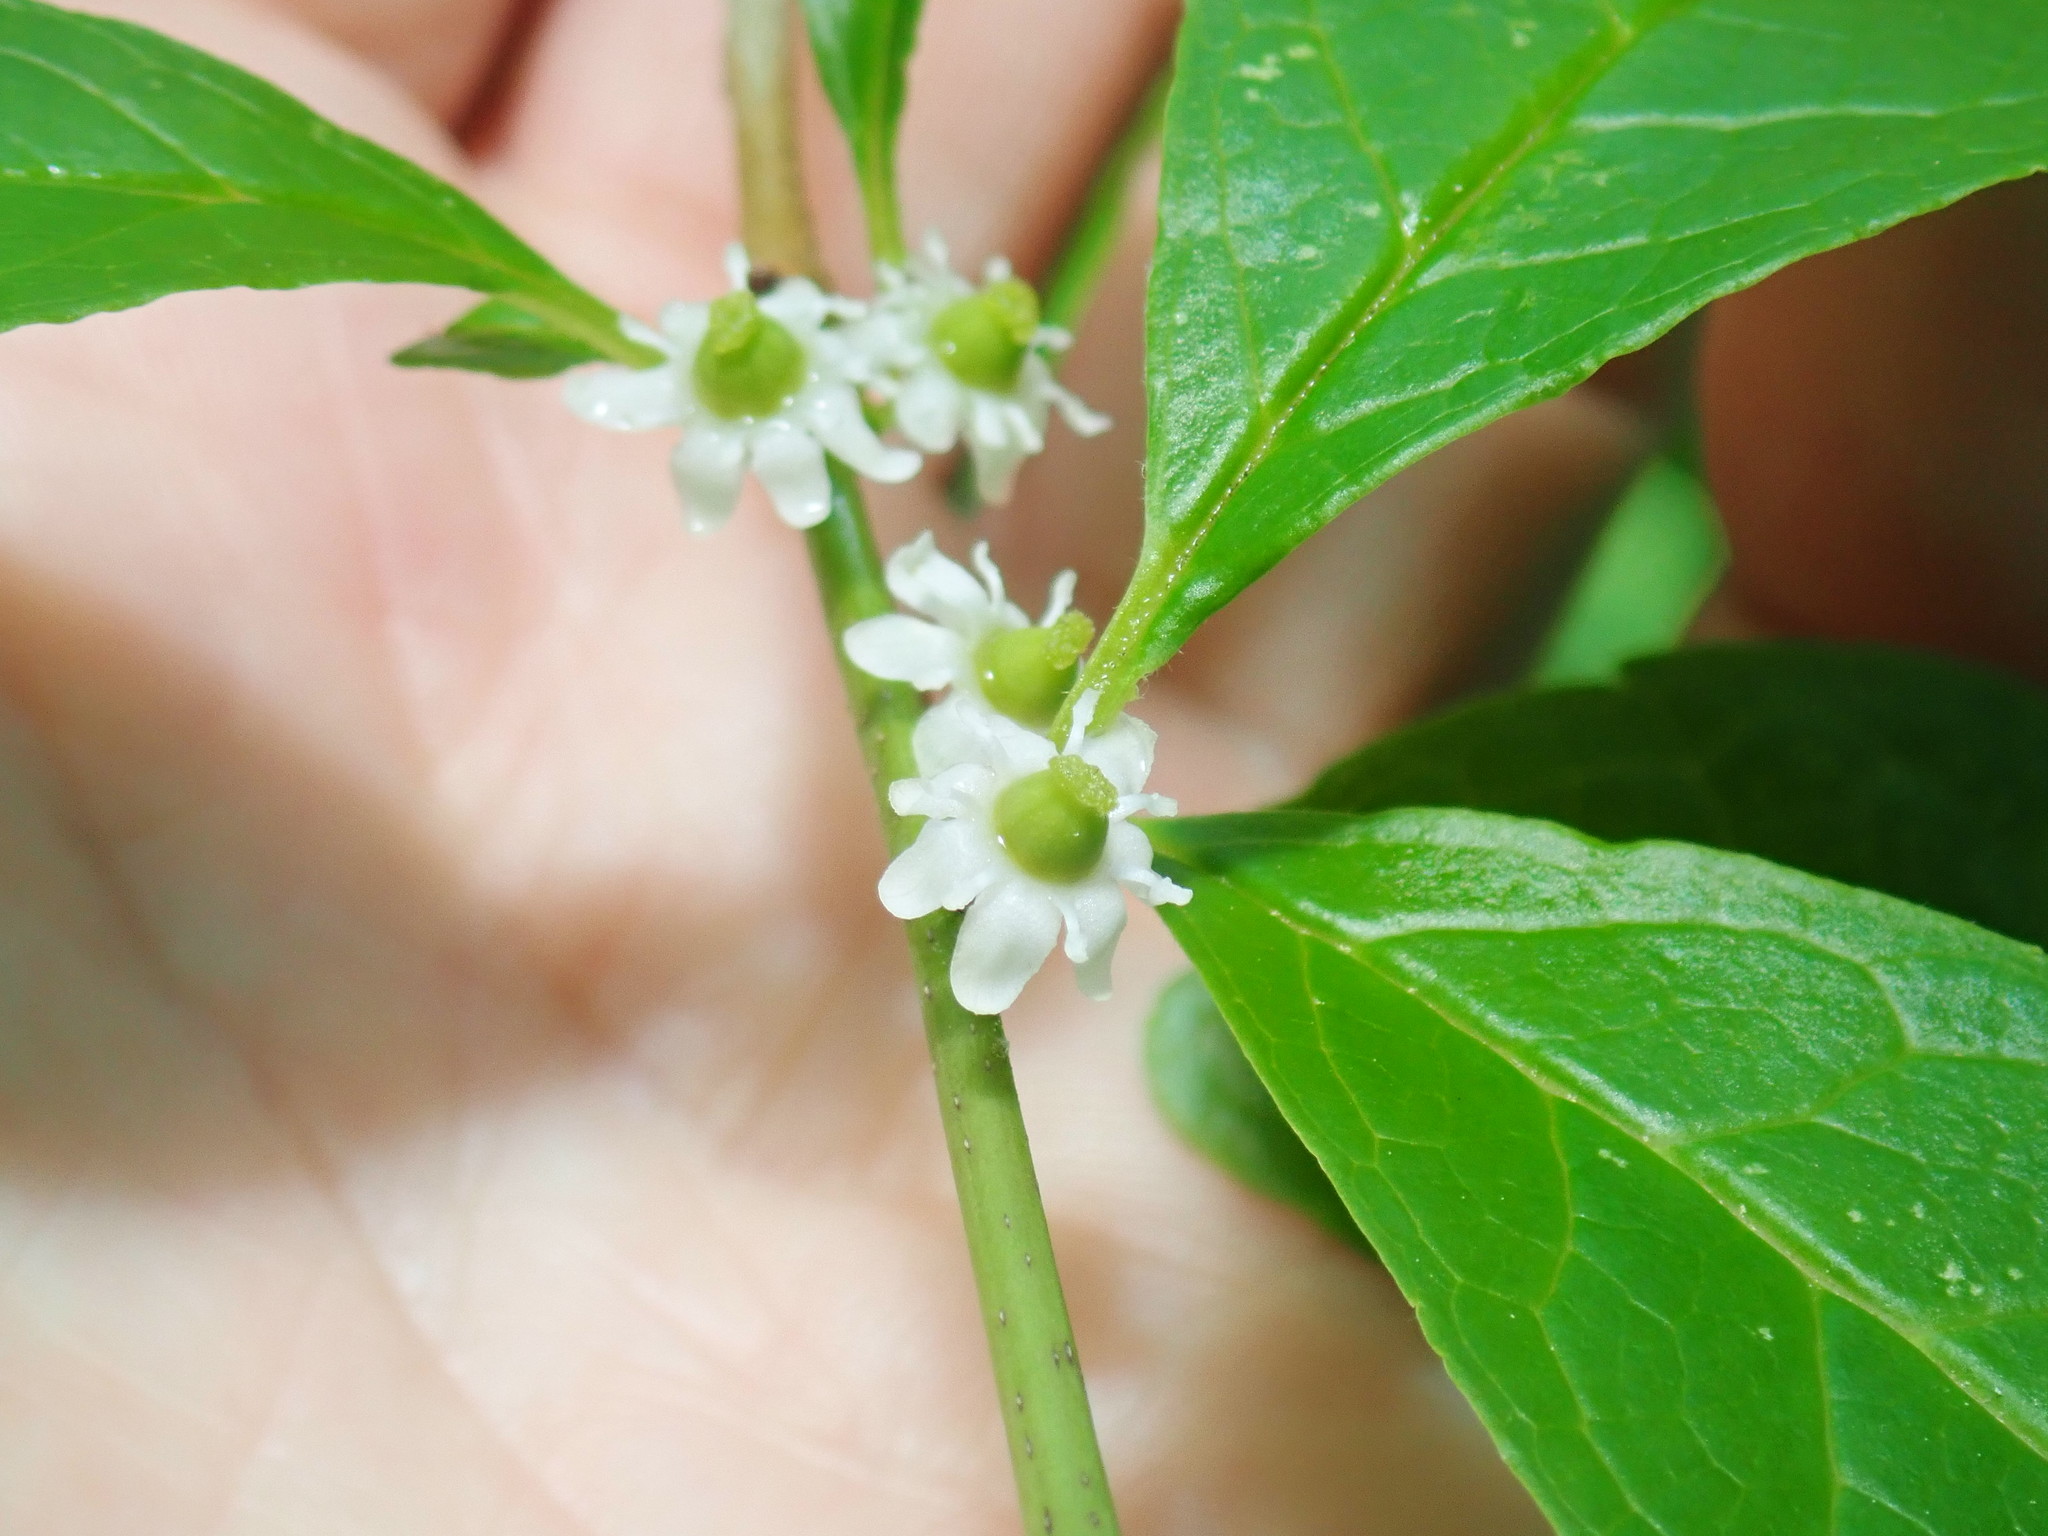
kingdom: Plantae
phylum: Tracheophyta
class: Magnoliopsida
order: Aquifoliales
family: Aquifoliaceae
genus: Ilex
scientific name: Ilex verticillata
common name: Virginia winterberry
